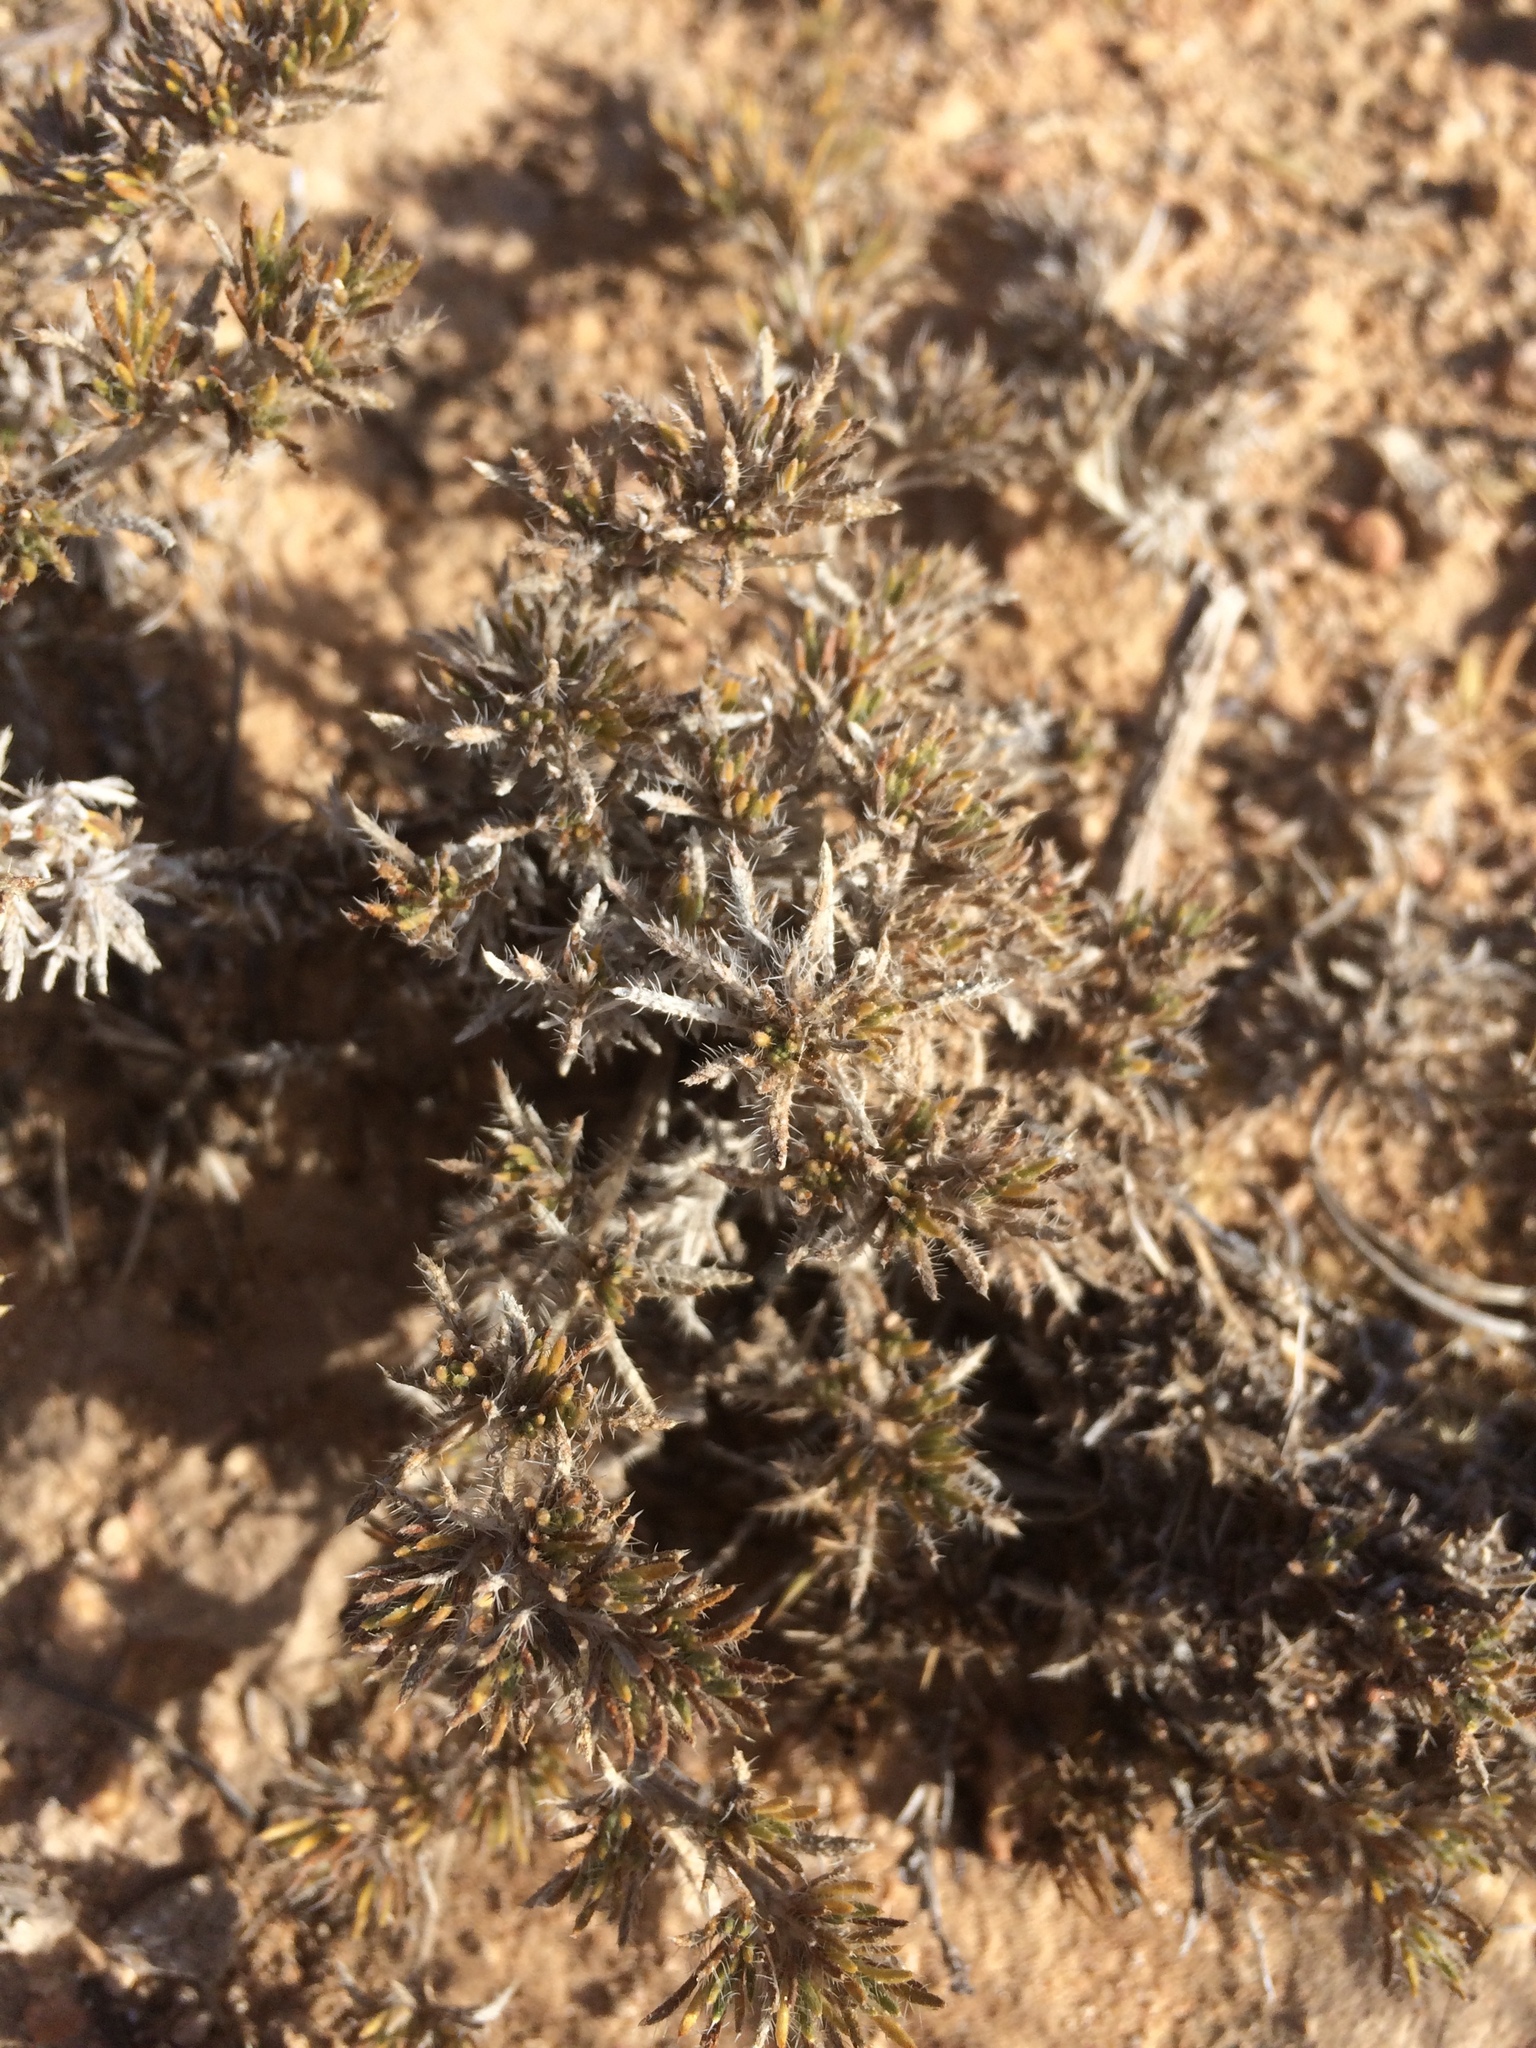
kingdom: Plantae
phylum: Tracheophyta
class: Magnoliopsida
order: Boraginales
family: Ehretiaceae
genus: Tiquilia
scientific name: Tiquilia hispidissima
